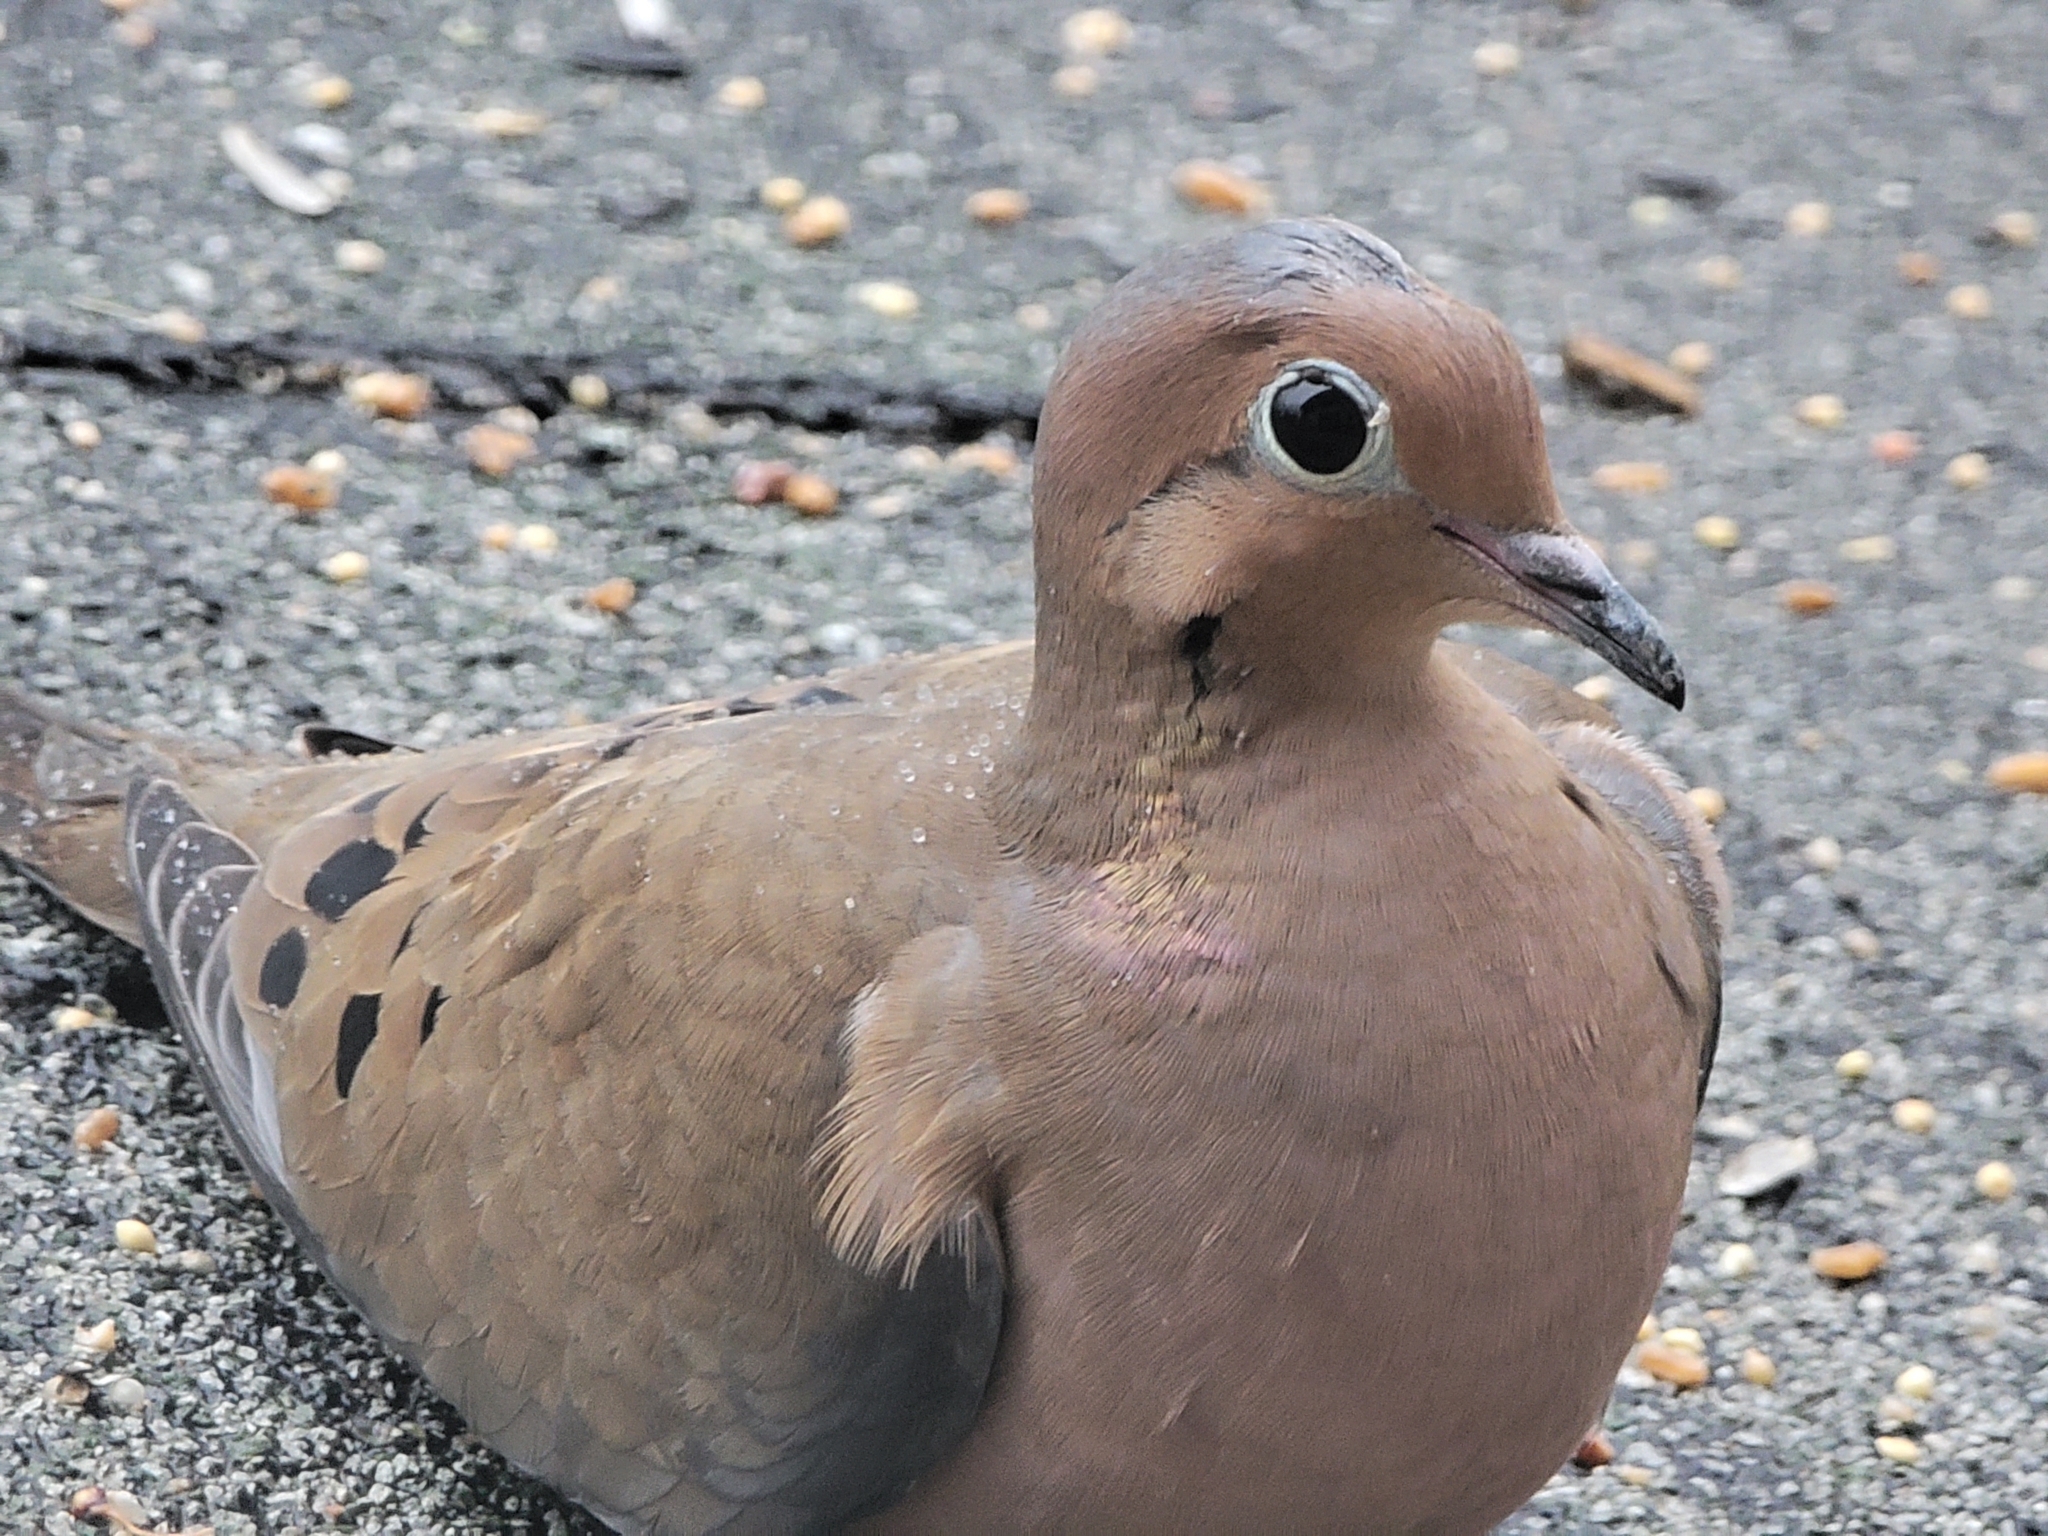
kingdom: Animalia
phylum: Chordata
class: Aves
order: Columbiformes
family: Columbidae
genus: Zenaida
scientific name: Zenaida macroura
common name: Mourning dove
